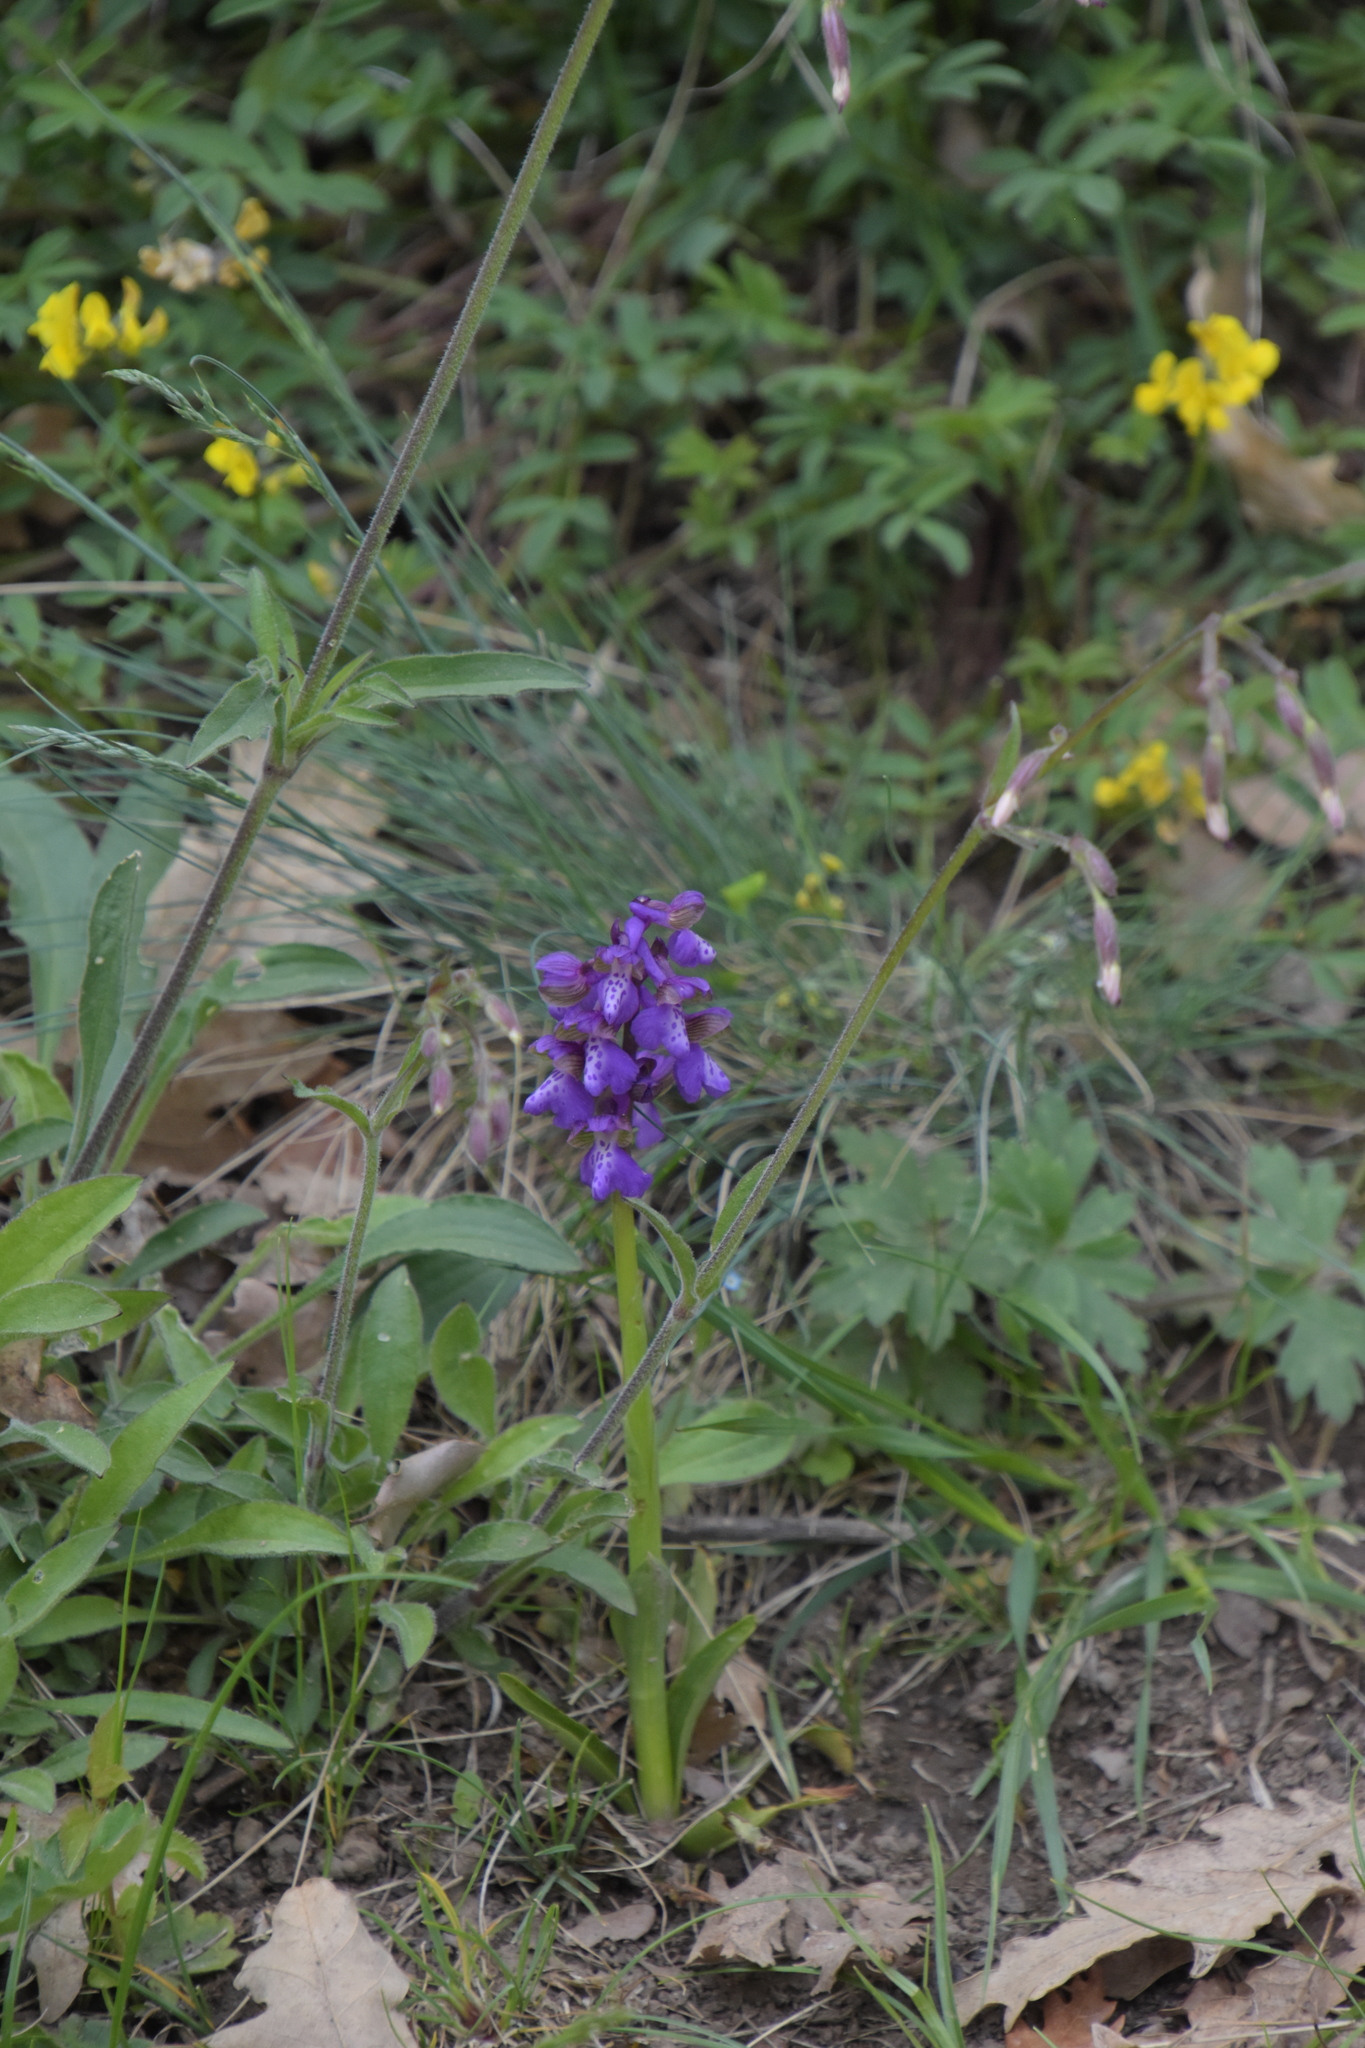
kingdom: Plantae
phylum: Tracheophyta
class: Liliopsida
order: Asparagales
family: Orchidaceae
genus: Anacamptis
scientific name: Anacamptis morio
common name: Green-winged orchid
